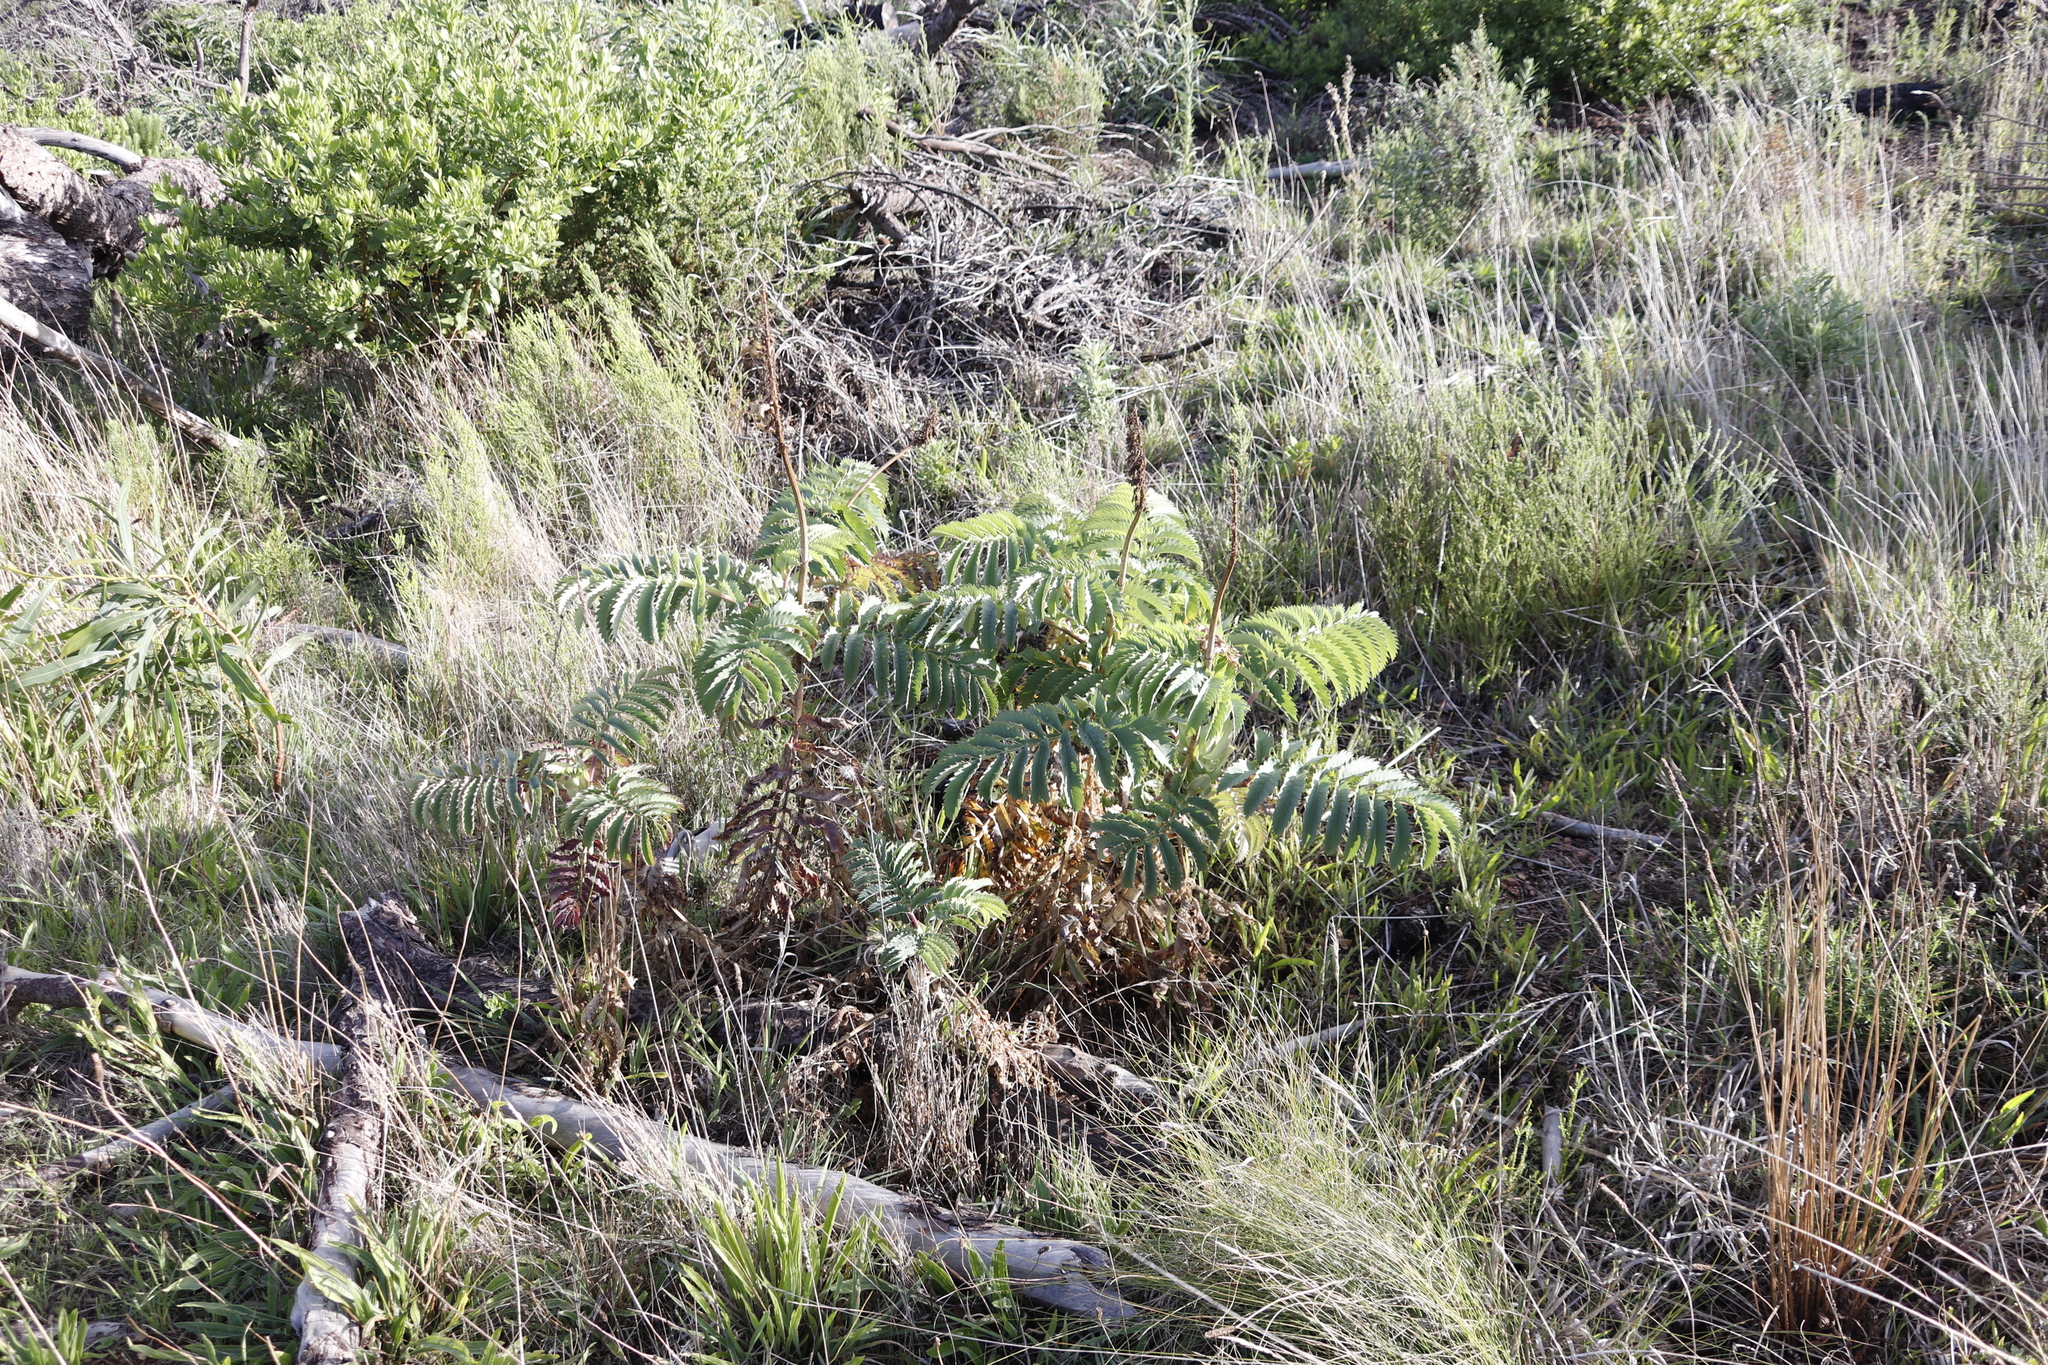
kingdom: Plantae
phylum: Tracheophyta
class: Magnoliopsida
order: Geraniales
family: Melianthaceae
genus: Melianthus
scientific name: Melianthus major
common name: Honey-flower
